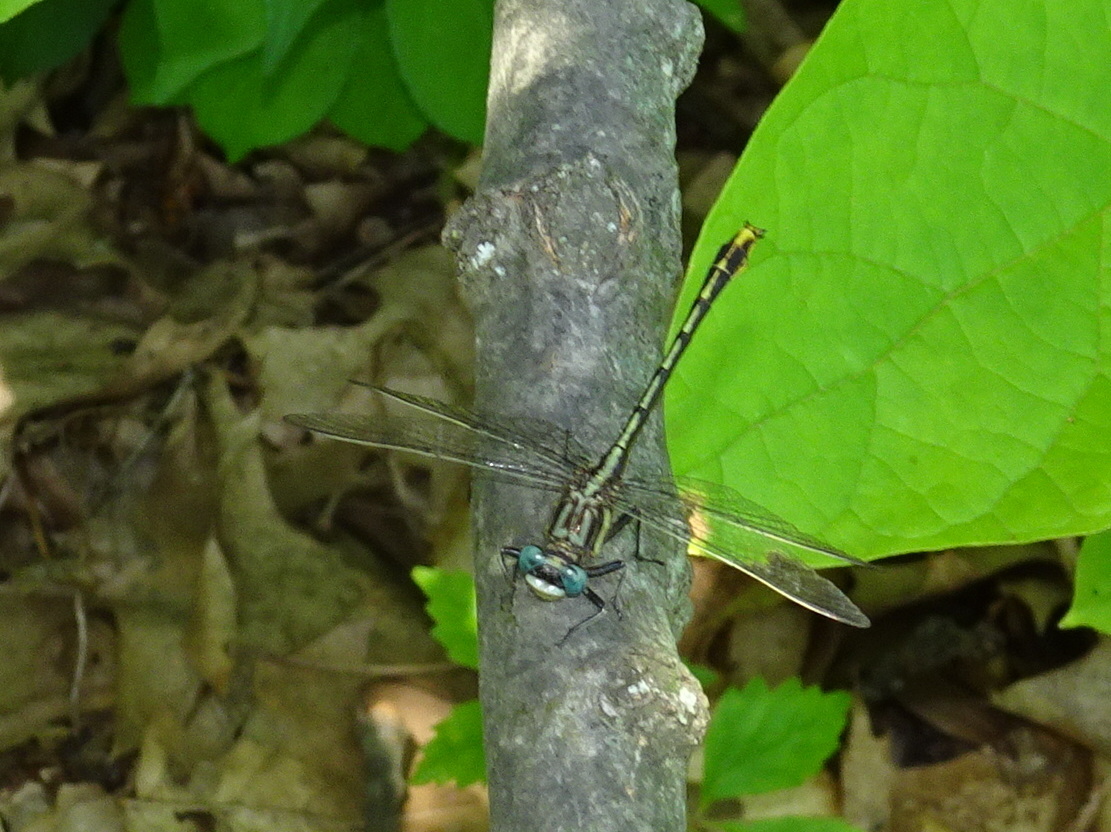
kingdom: Animalia
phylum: Arthropoda
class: Insecta
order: Odonata
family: Gomphidae
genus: Phanogomphus
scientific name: Phanogomphus exilis
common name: Lancet clubtail
